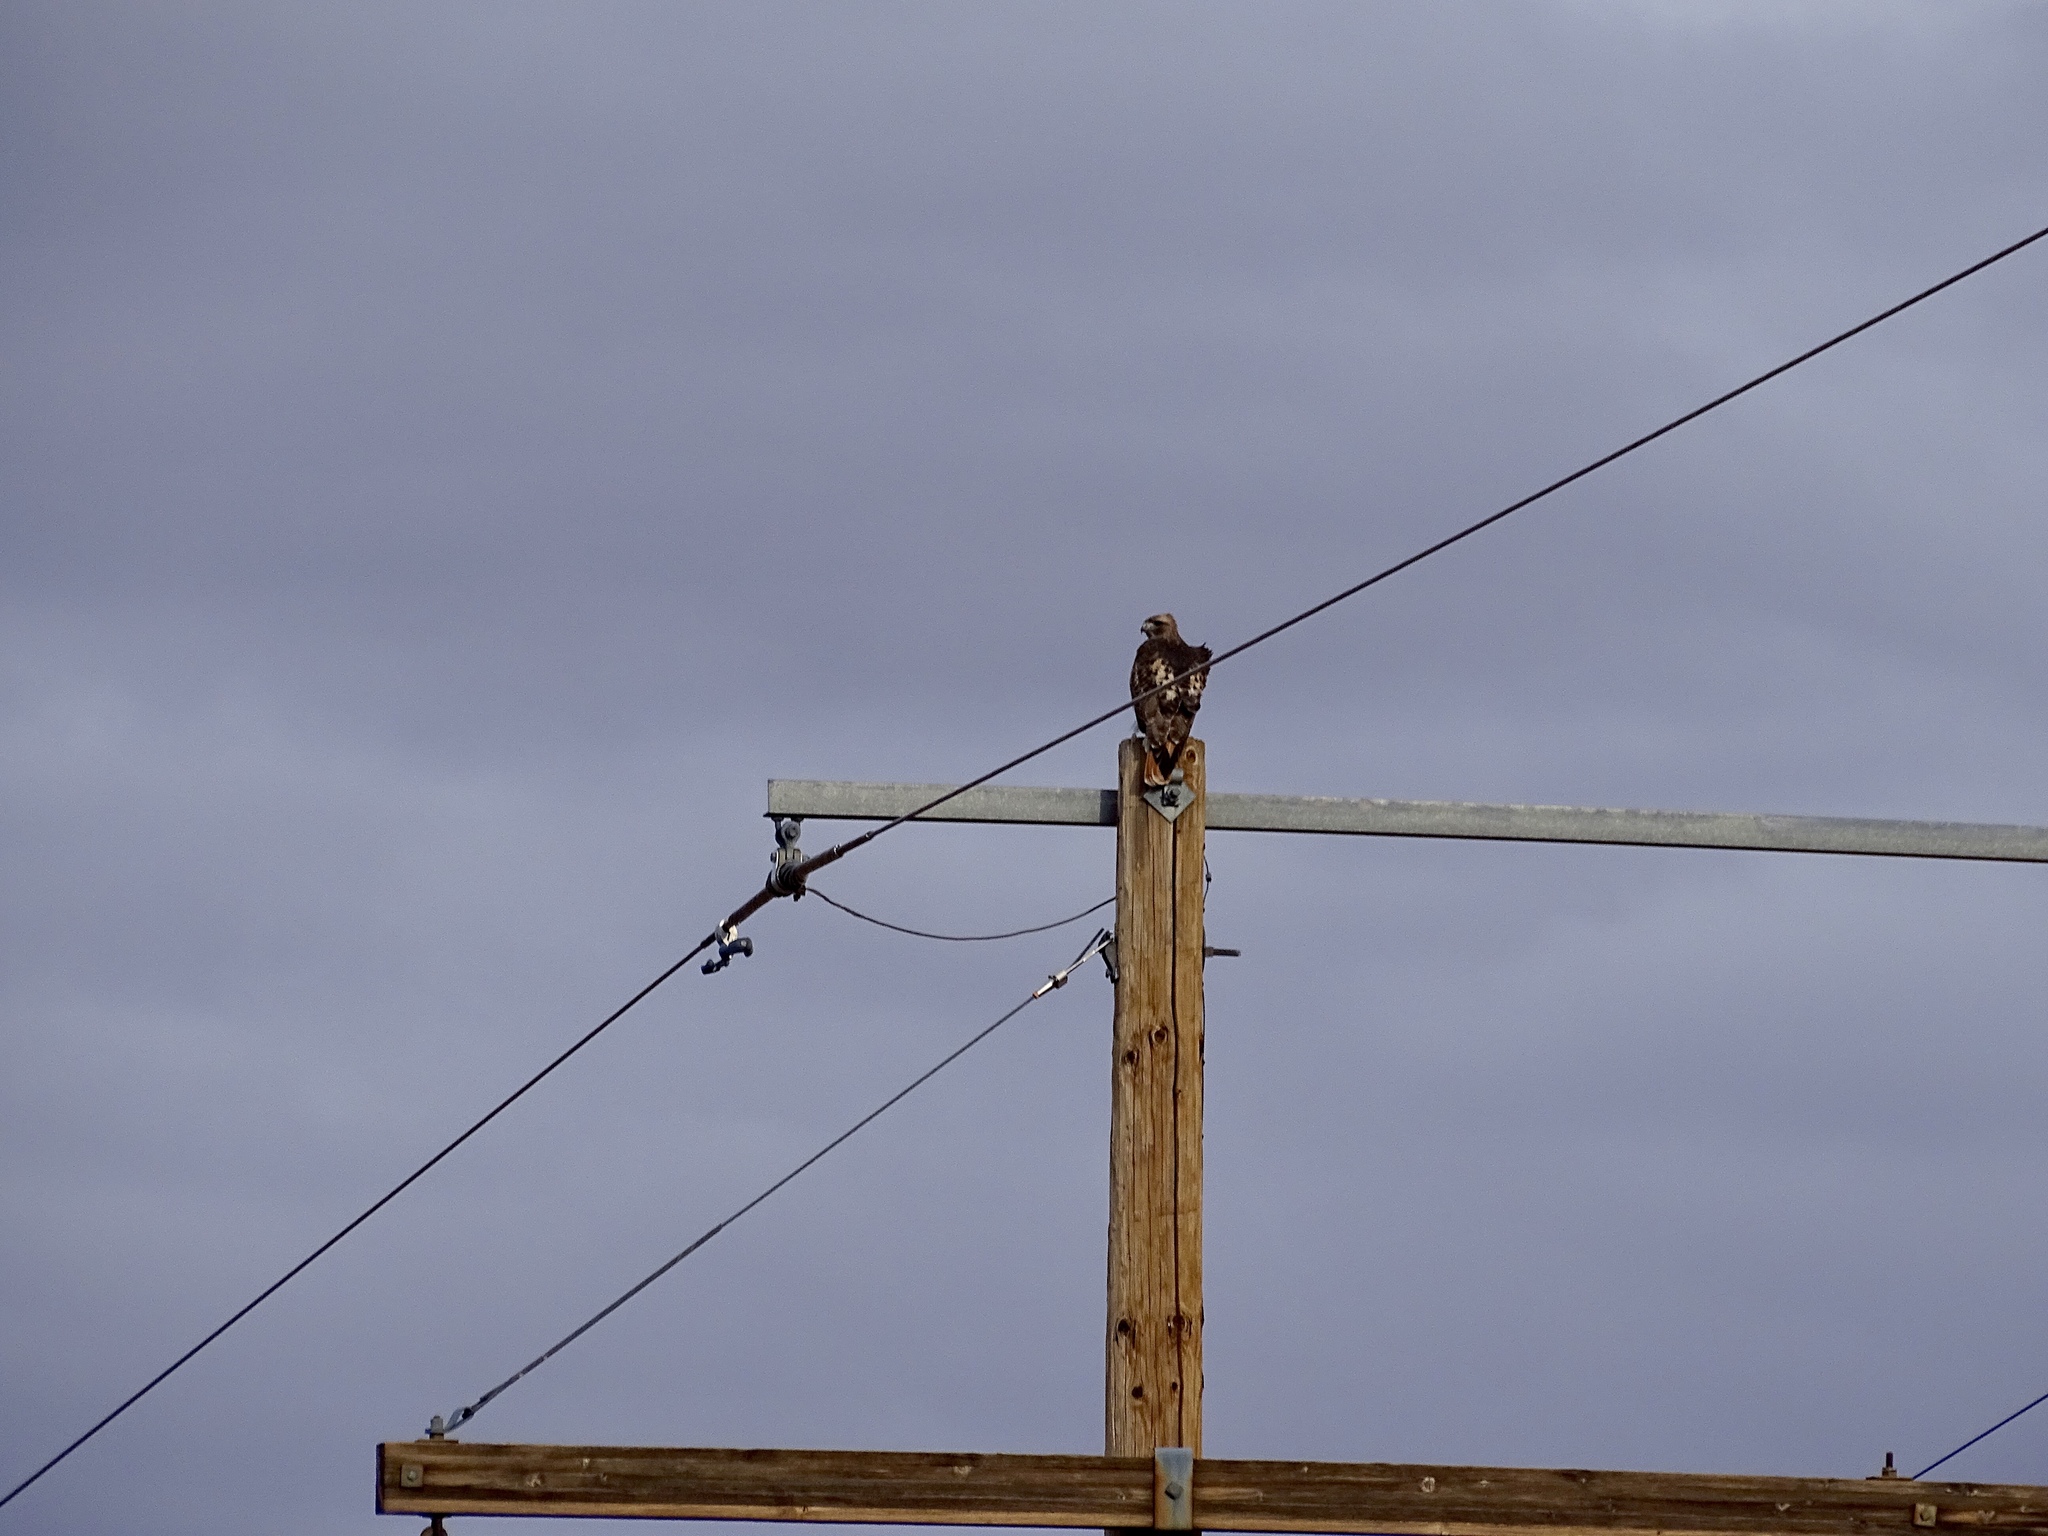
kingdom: Animalia
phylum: Chordata
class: Aves
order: Accipitriformes
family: Accipitridae
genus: Buteo
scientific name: Buteo jamaicensis
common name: Red-tailed hawk
